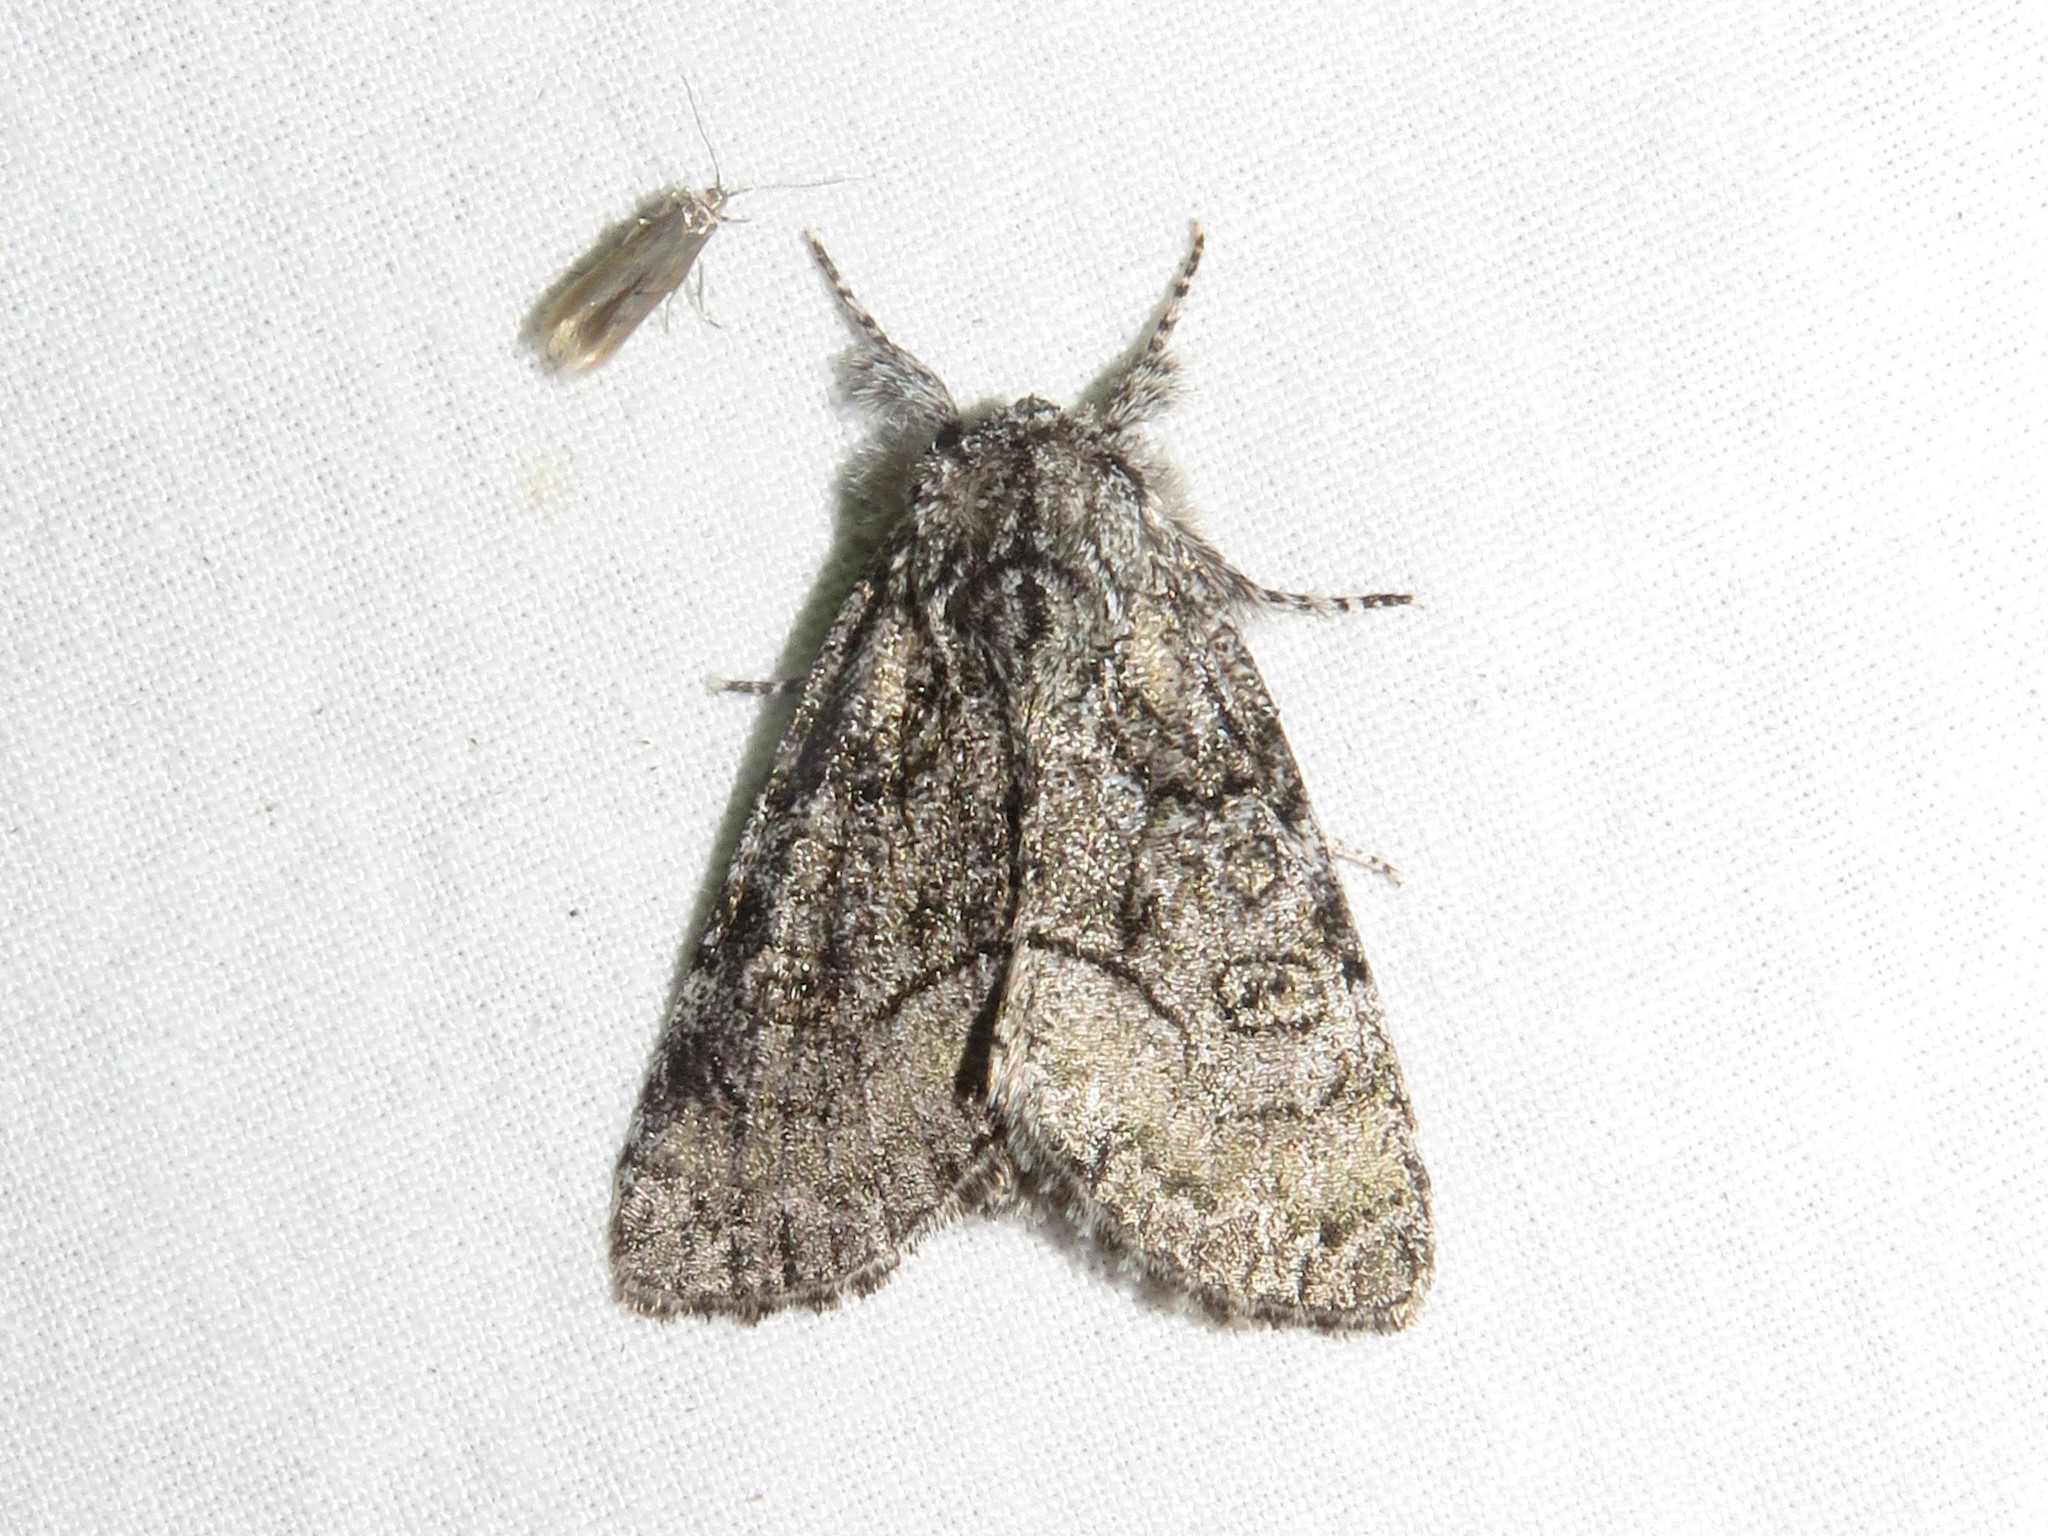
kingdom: Animalia
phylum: Arthropoda
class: Insecta
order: Lepidoptera
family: Noctuidae
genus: Raphia
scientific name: Raphia frater
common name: Brother
